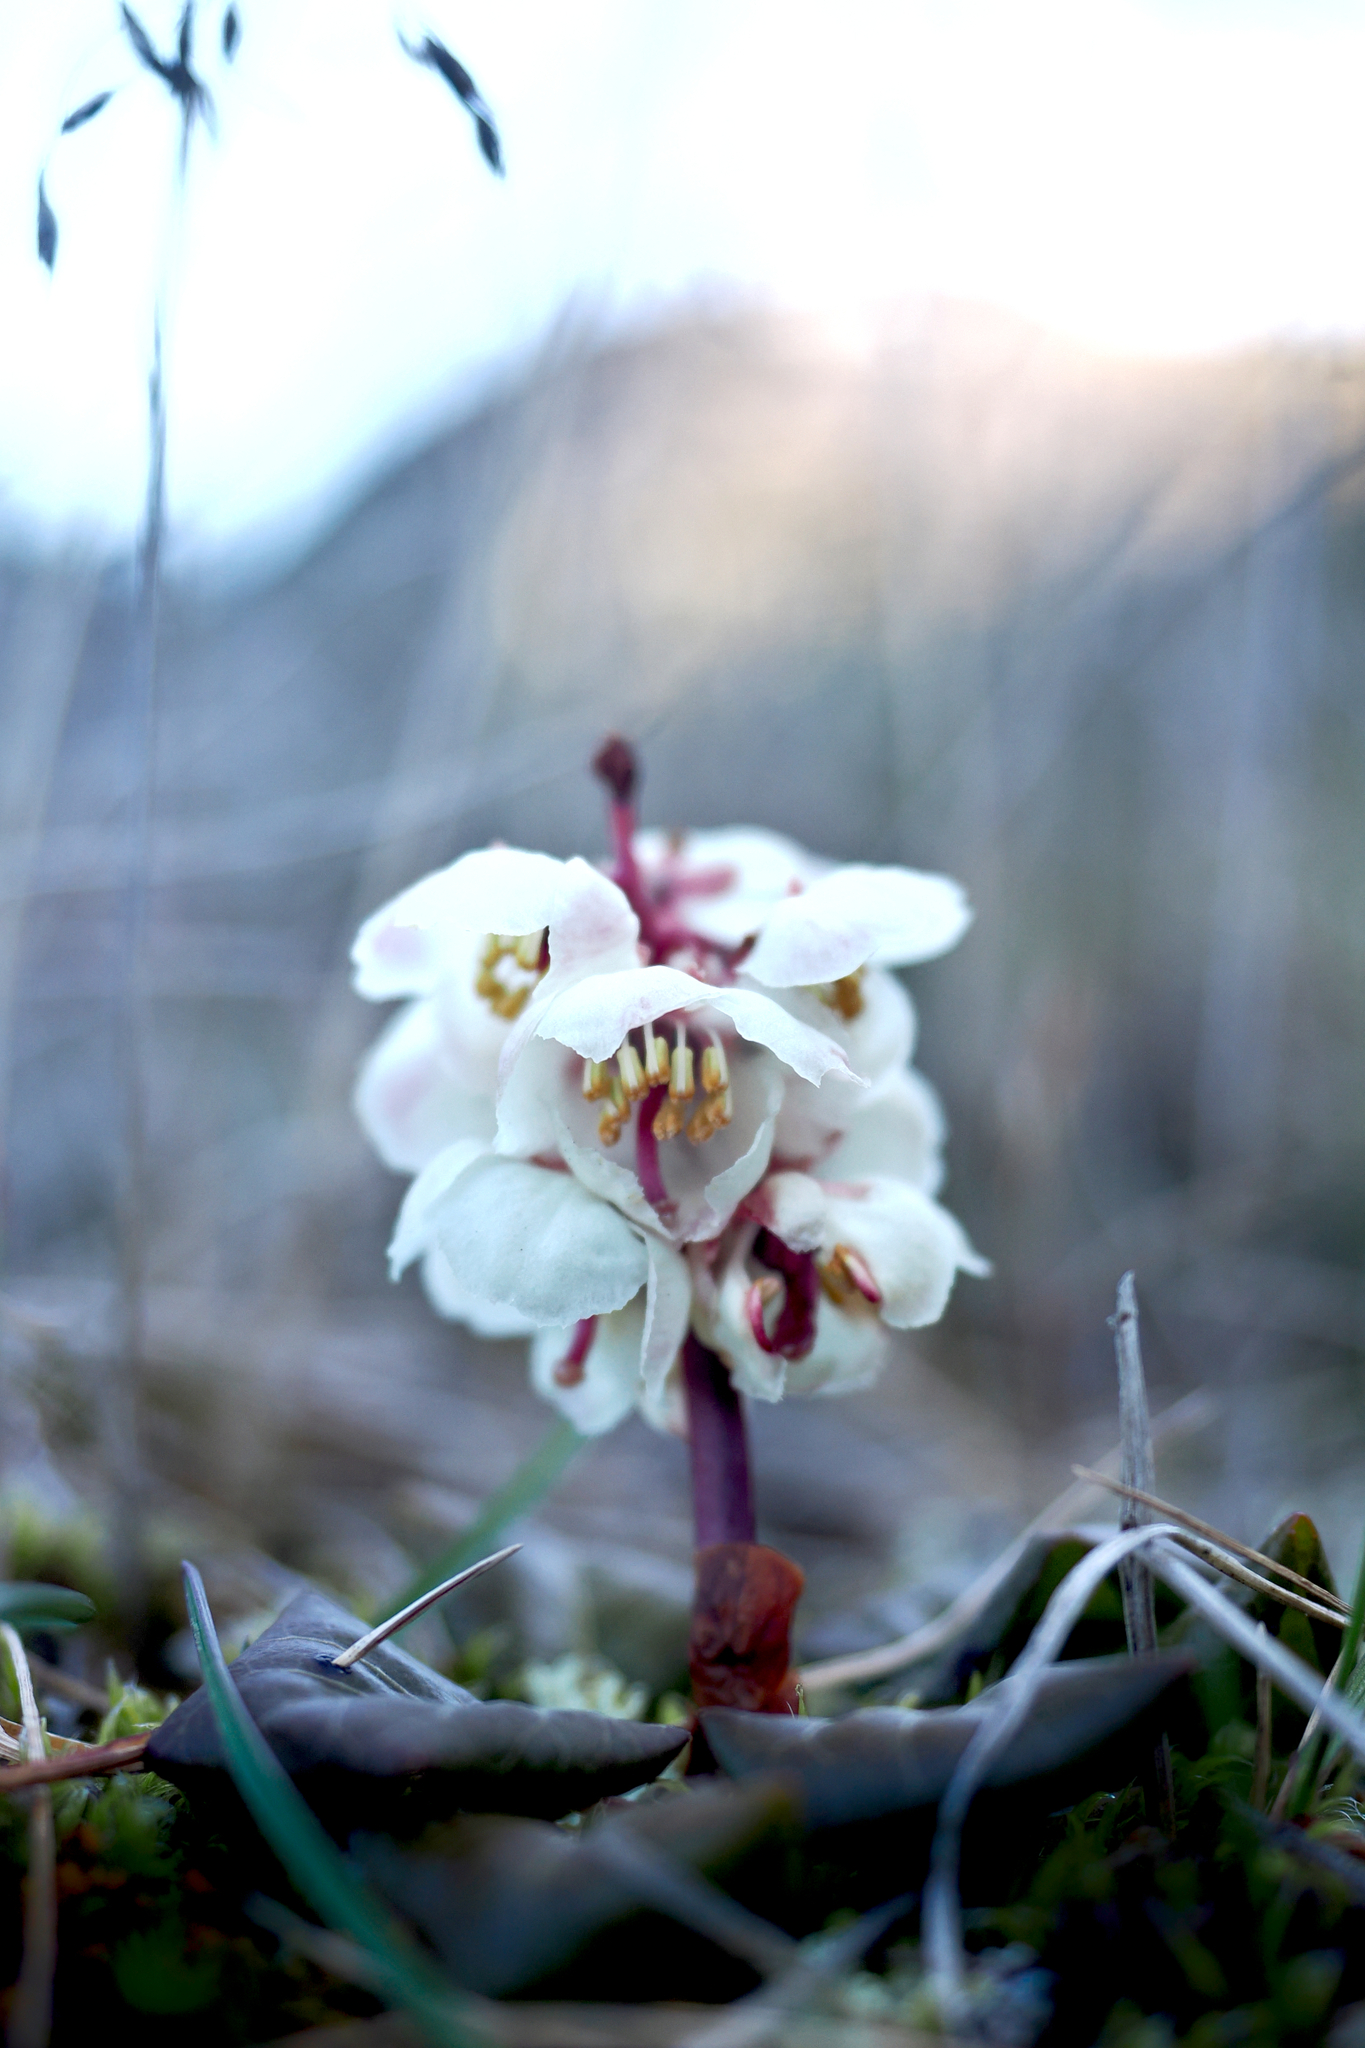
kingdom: Plantae
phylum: Tracheophyta
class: Magnoliopsida
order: Ericales
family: Ericaceae
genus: Pyrola
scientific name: Pyrola grandiflora
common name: Arctic pyrola
